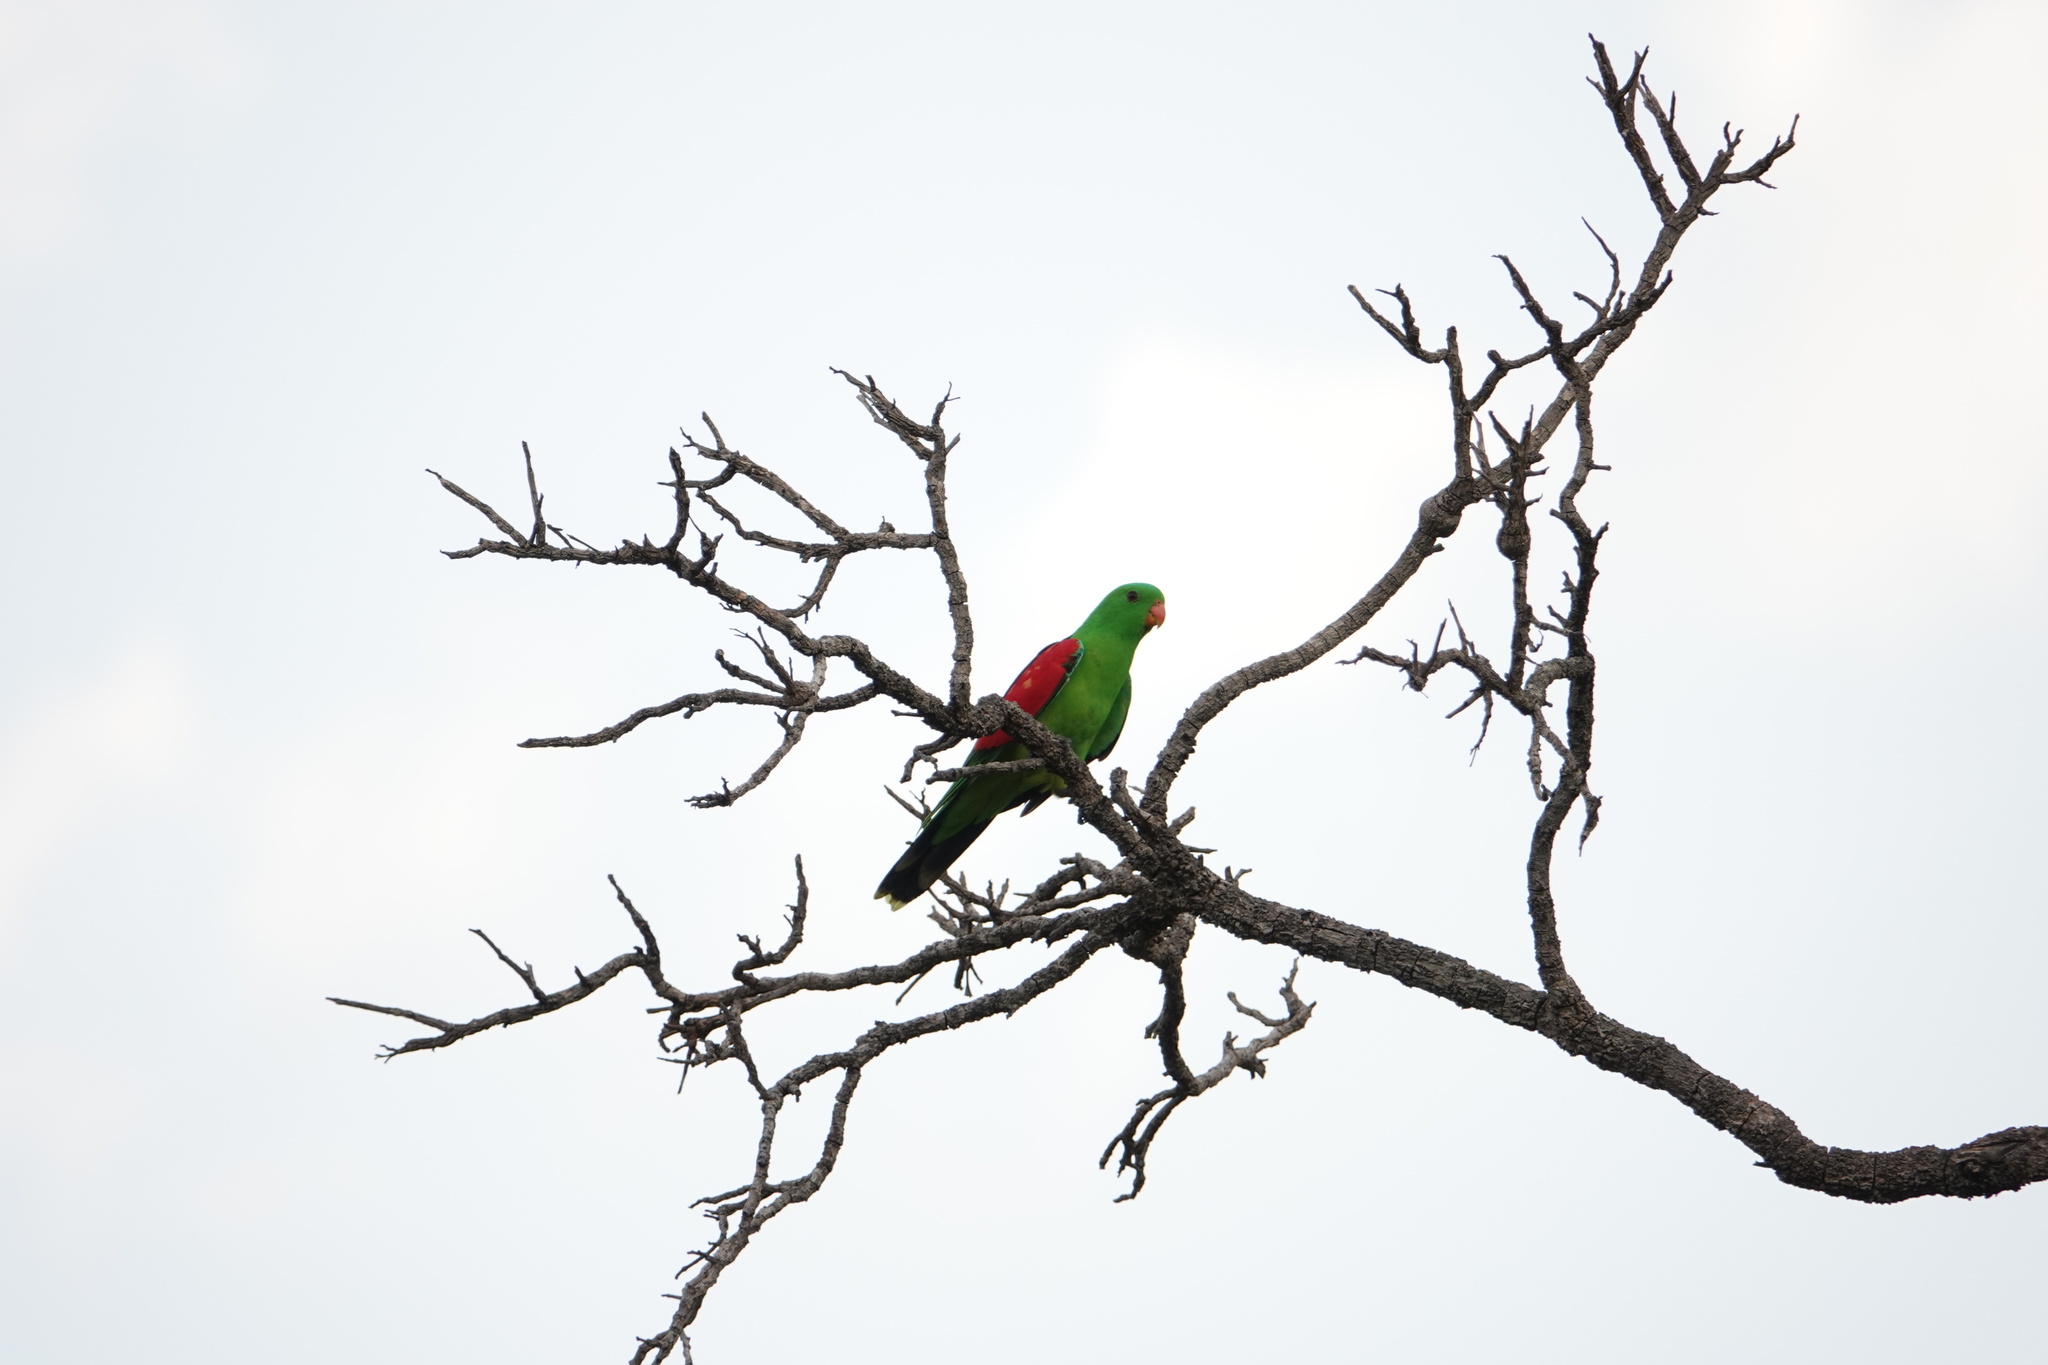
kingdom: Animalia
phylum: Chordata
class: Aves
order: Psittaciformes
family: Psittacidae
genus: Aprosmictus
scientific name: Aprosmictus erythropterus
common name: Red-winged parrot
